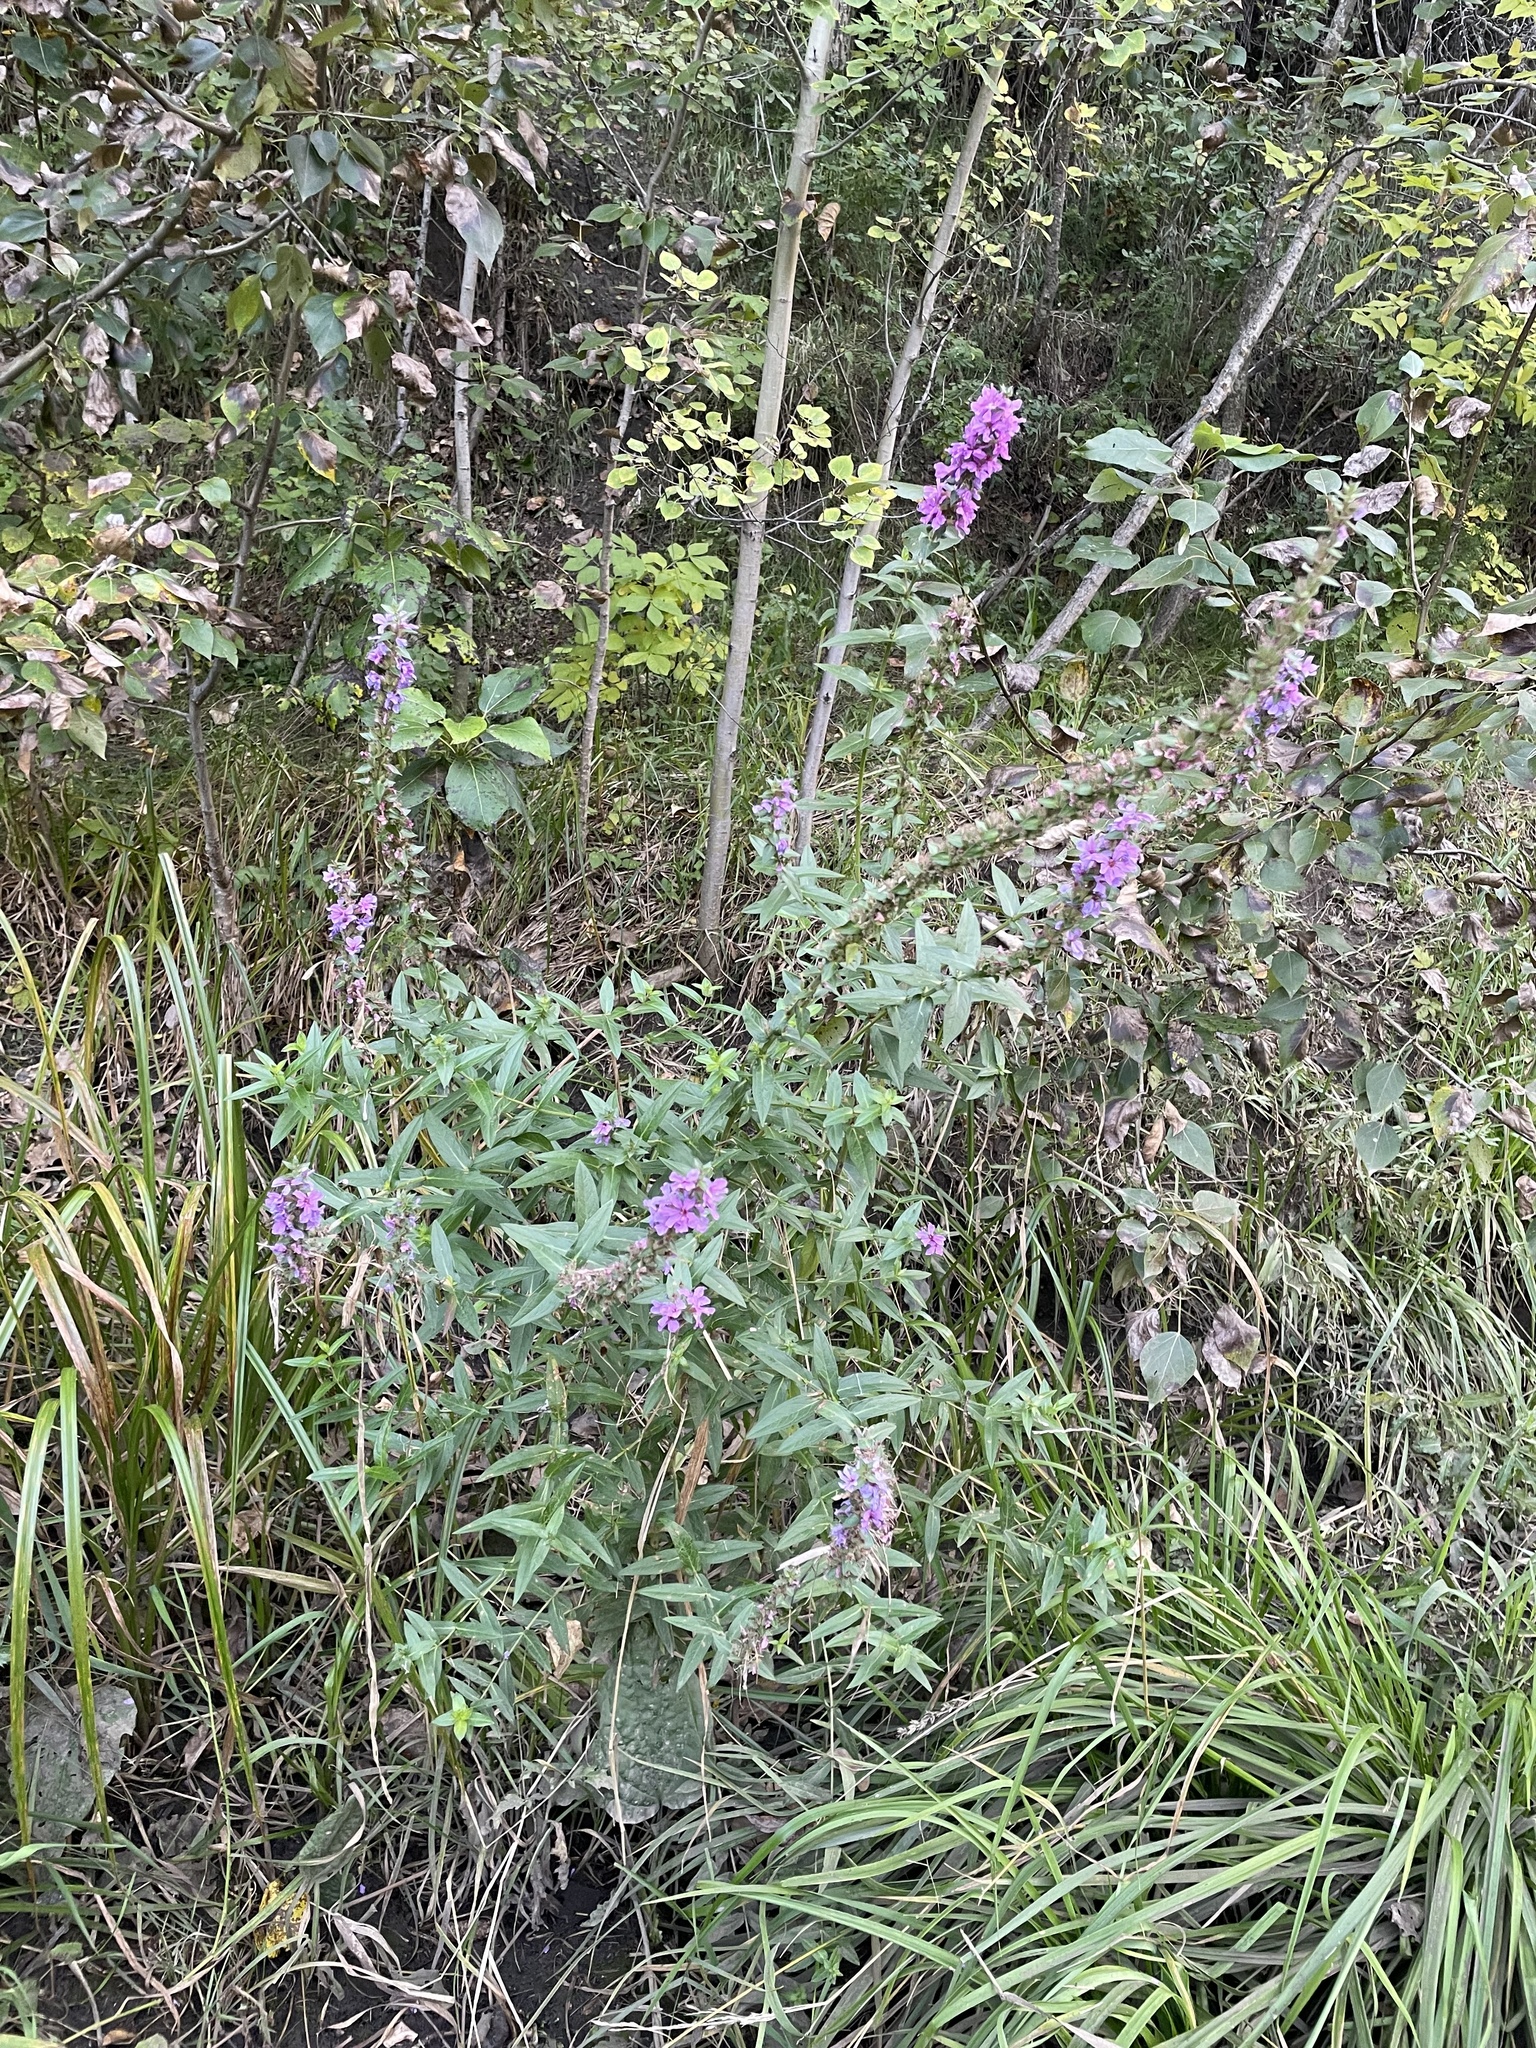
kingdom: Plantae
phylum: Tracheophyta
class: Magnoliopsida
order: Myrtales
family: Lythraceae
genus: Lythrum
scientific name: Lythrum salicaria
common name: Purple loosestrife
